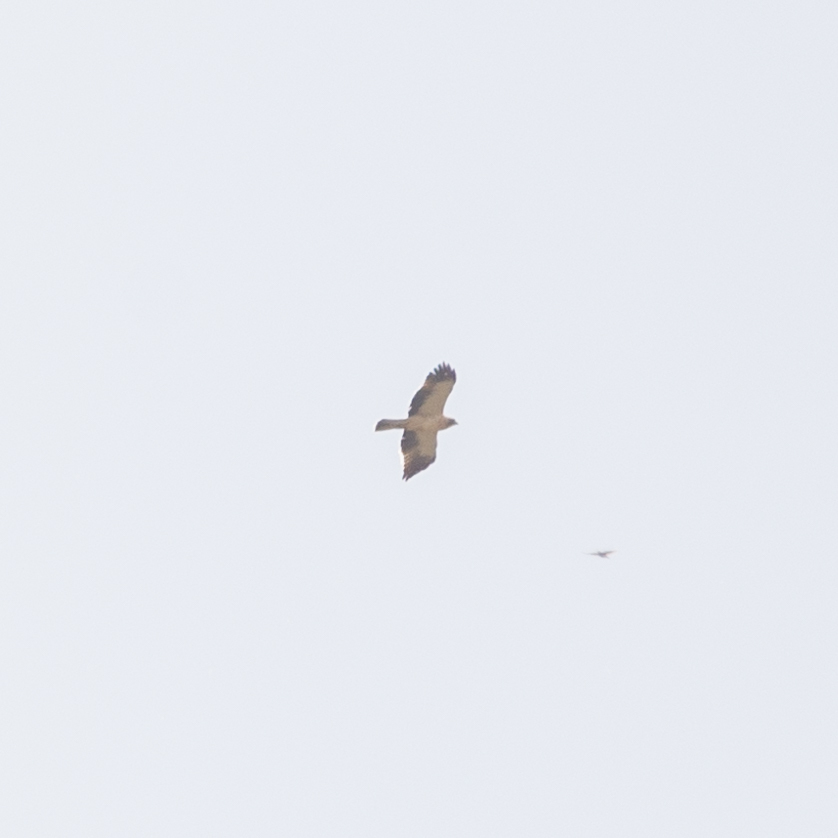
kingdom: Animalia
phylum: Chordata
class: Aves
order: Accipitriformes
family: Accipitridae
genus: Hieraaetus
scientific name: Hieraaetus pennatus
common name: Booted eagle
